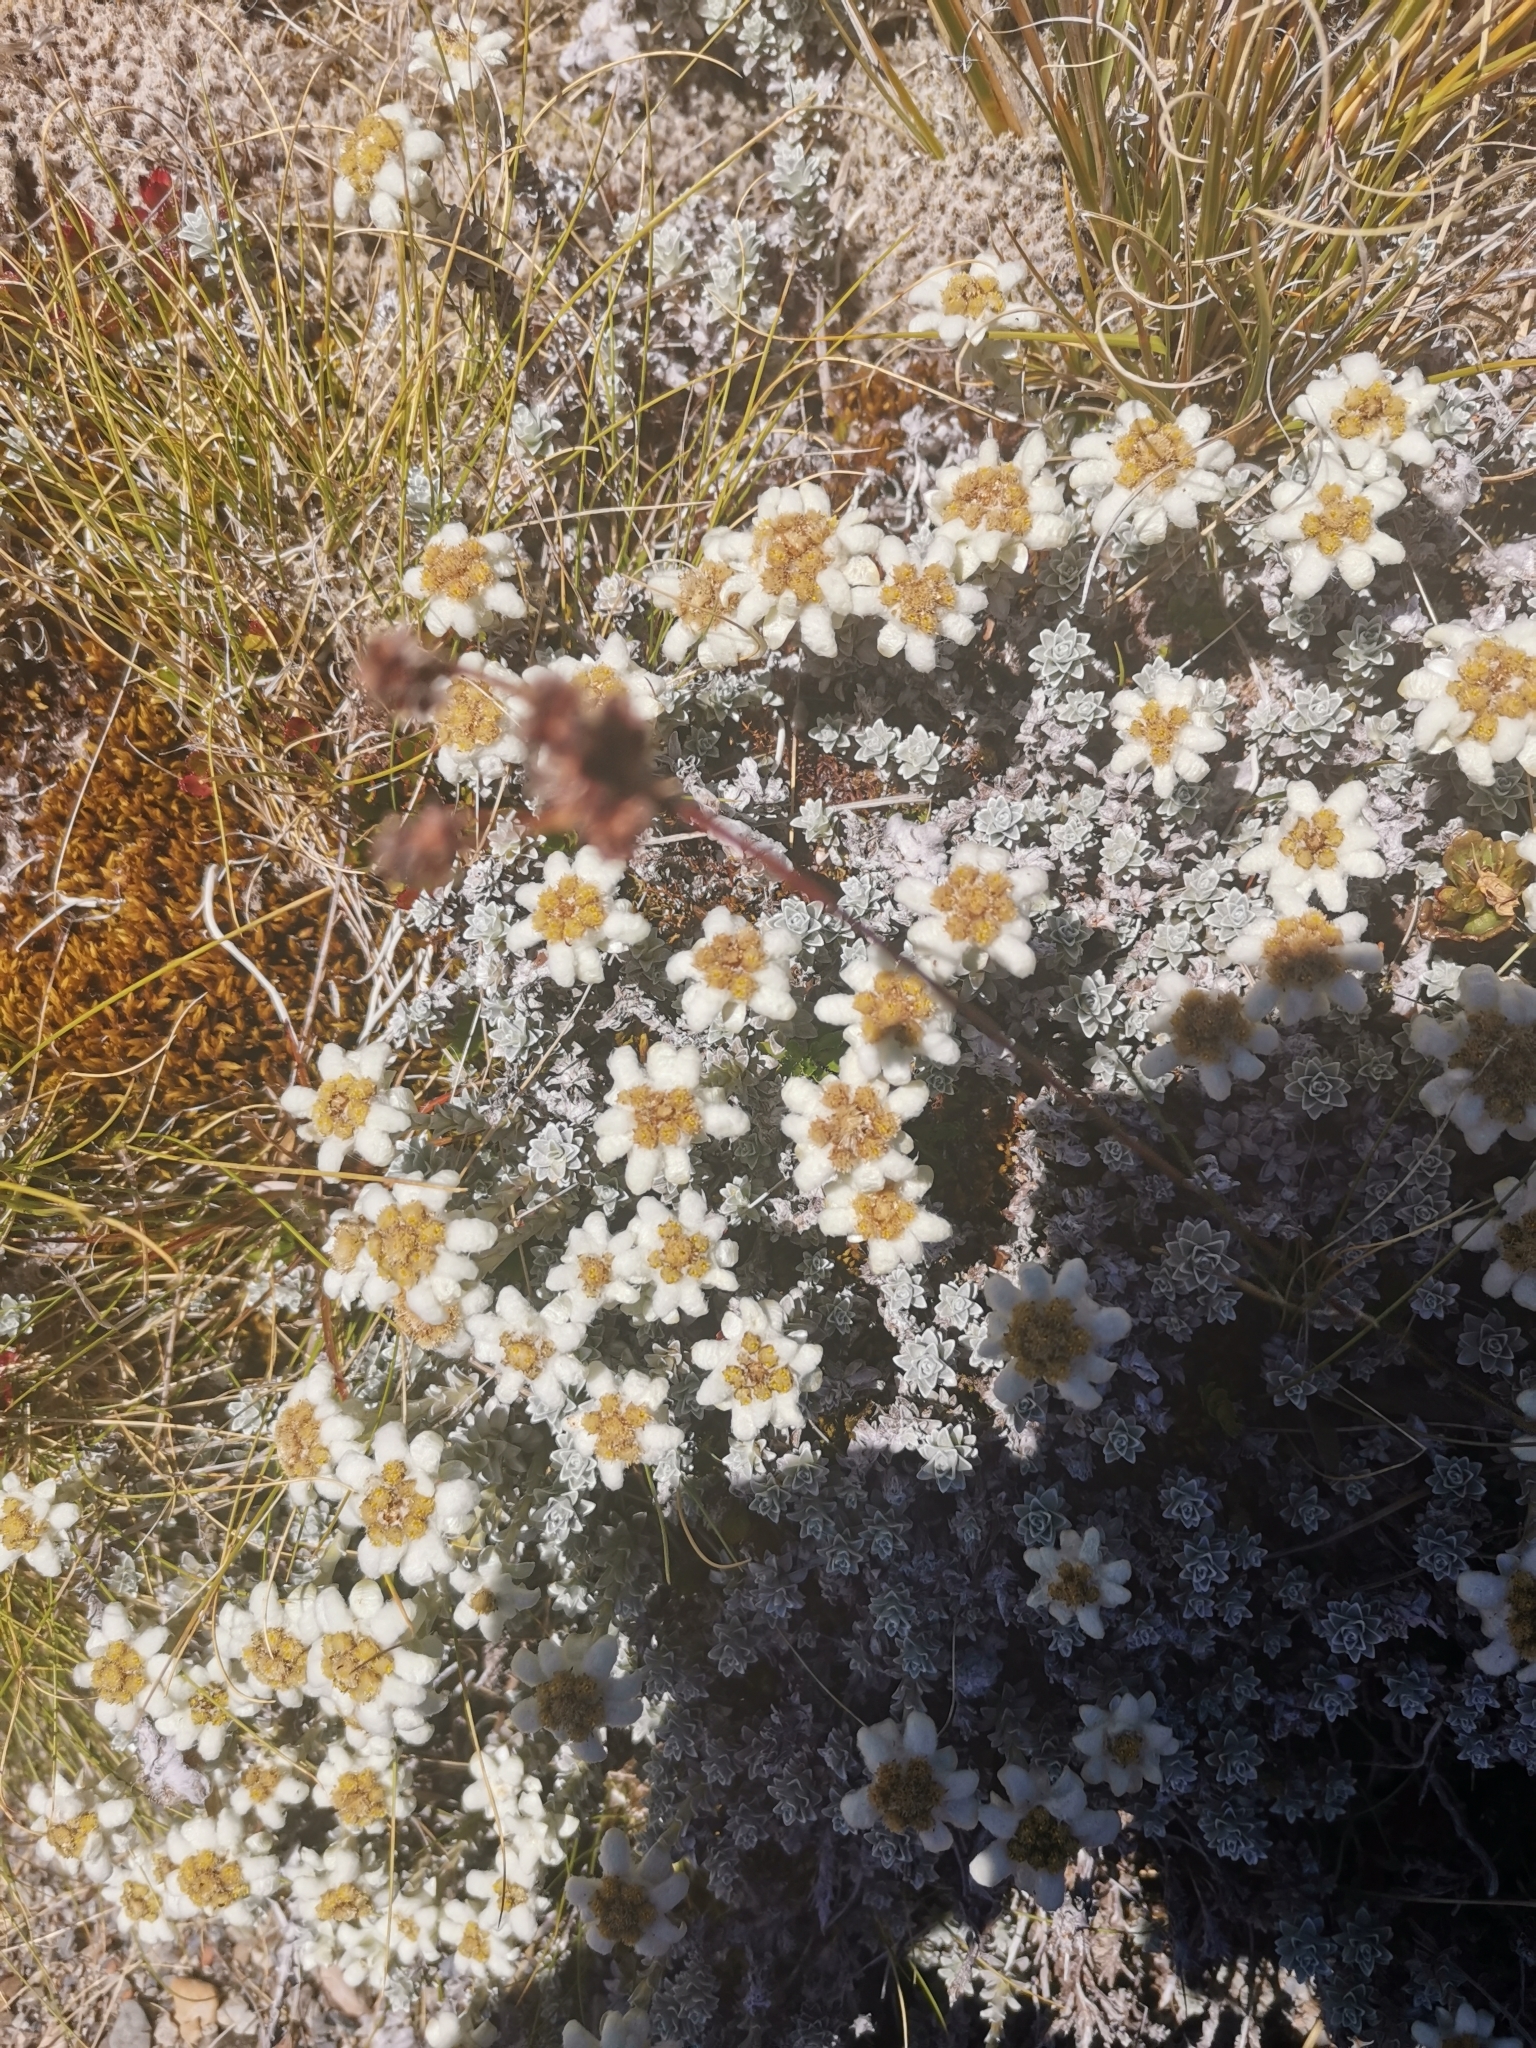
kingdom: Plantae
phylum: Tracheophyta
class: Magnoliopsida
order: Asterales
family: Asteraceae
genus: Leucogenes
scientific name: Leucogenes grandiceps
